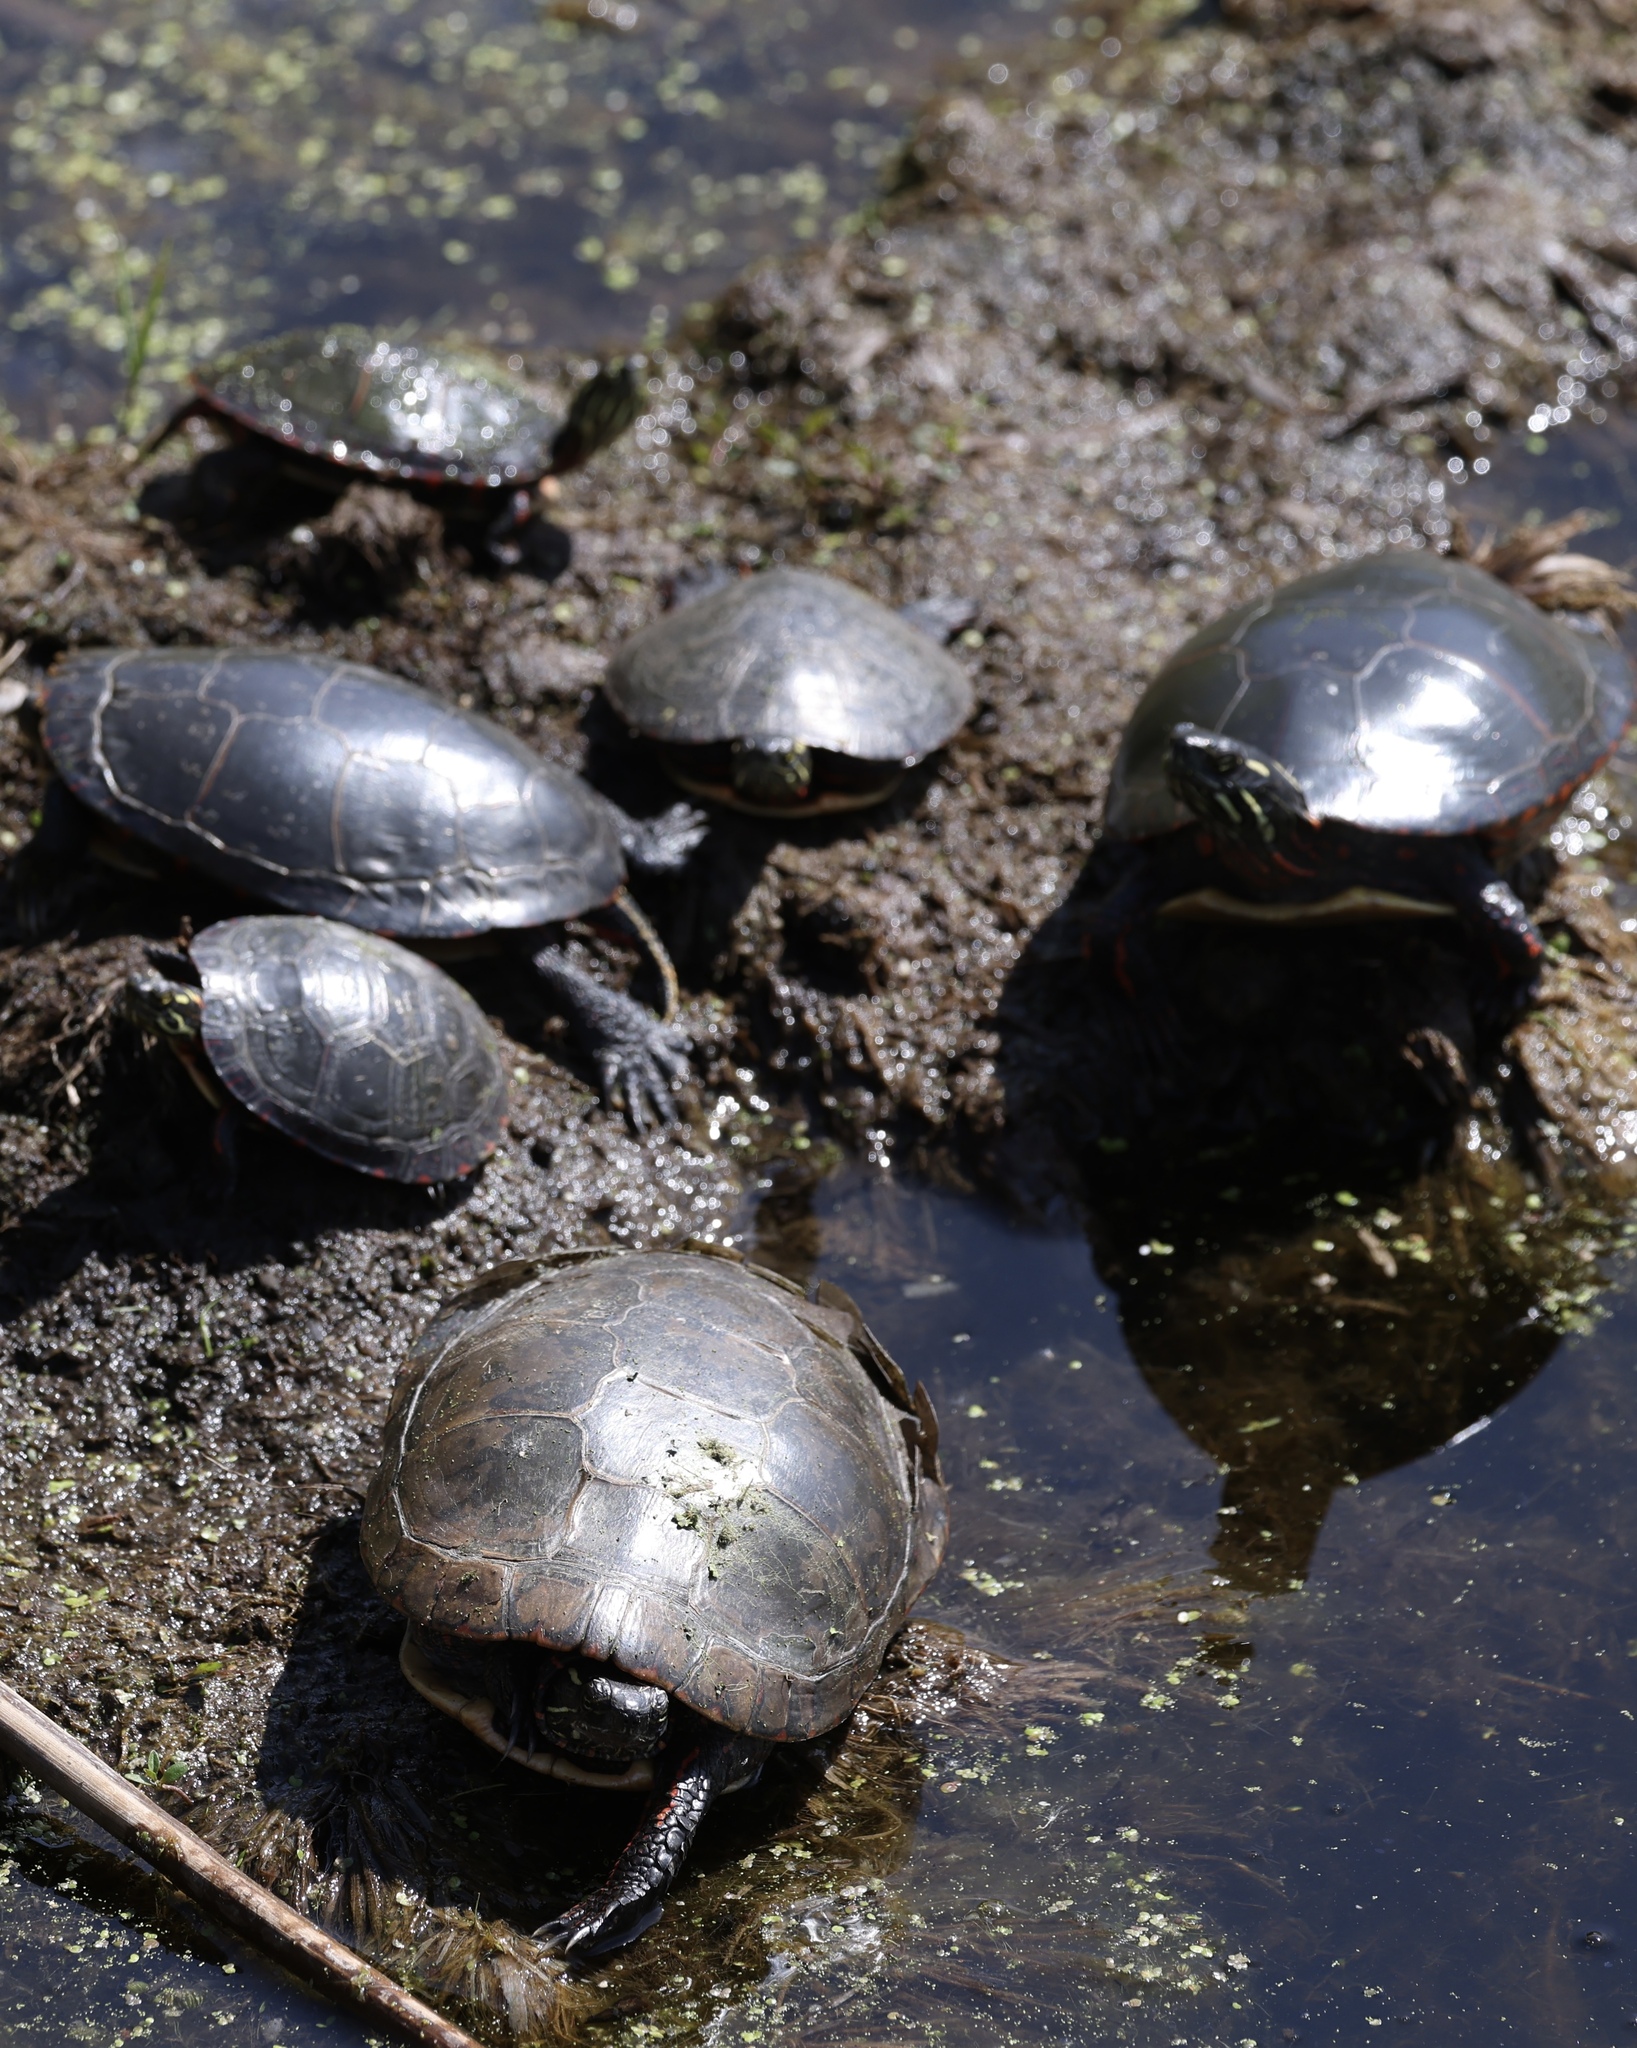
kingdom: Animalia
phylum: Chordata
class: Testudines
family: Emydidae
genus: Chrysemys
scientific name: Chrysemys picta
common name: Painted turtle
